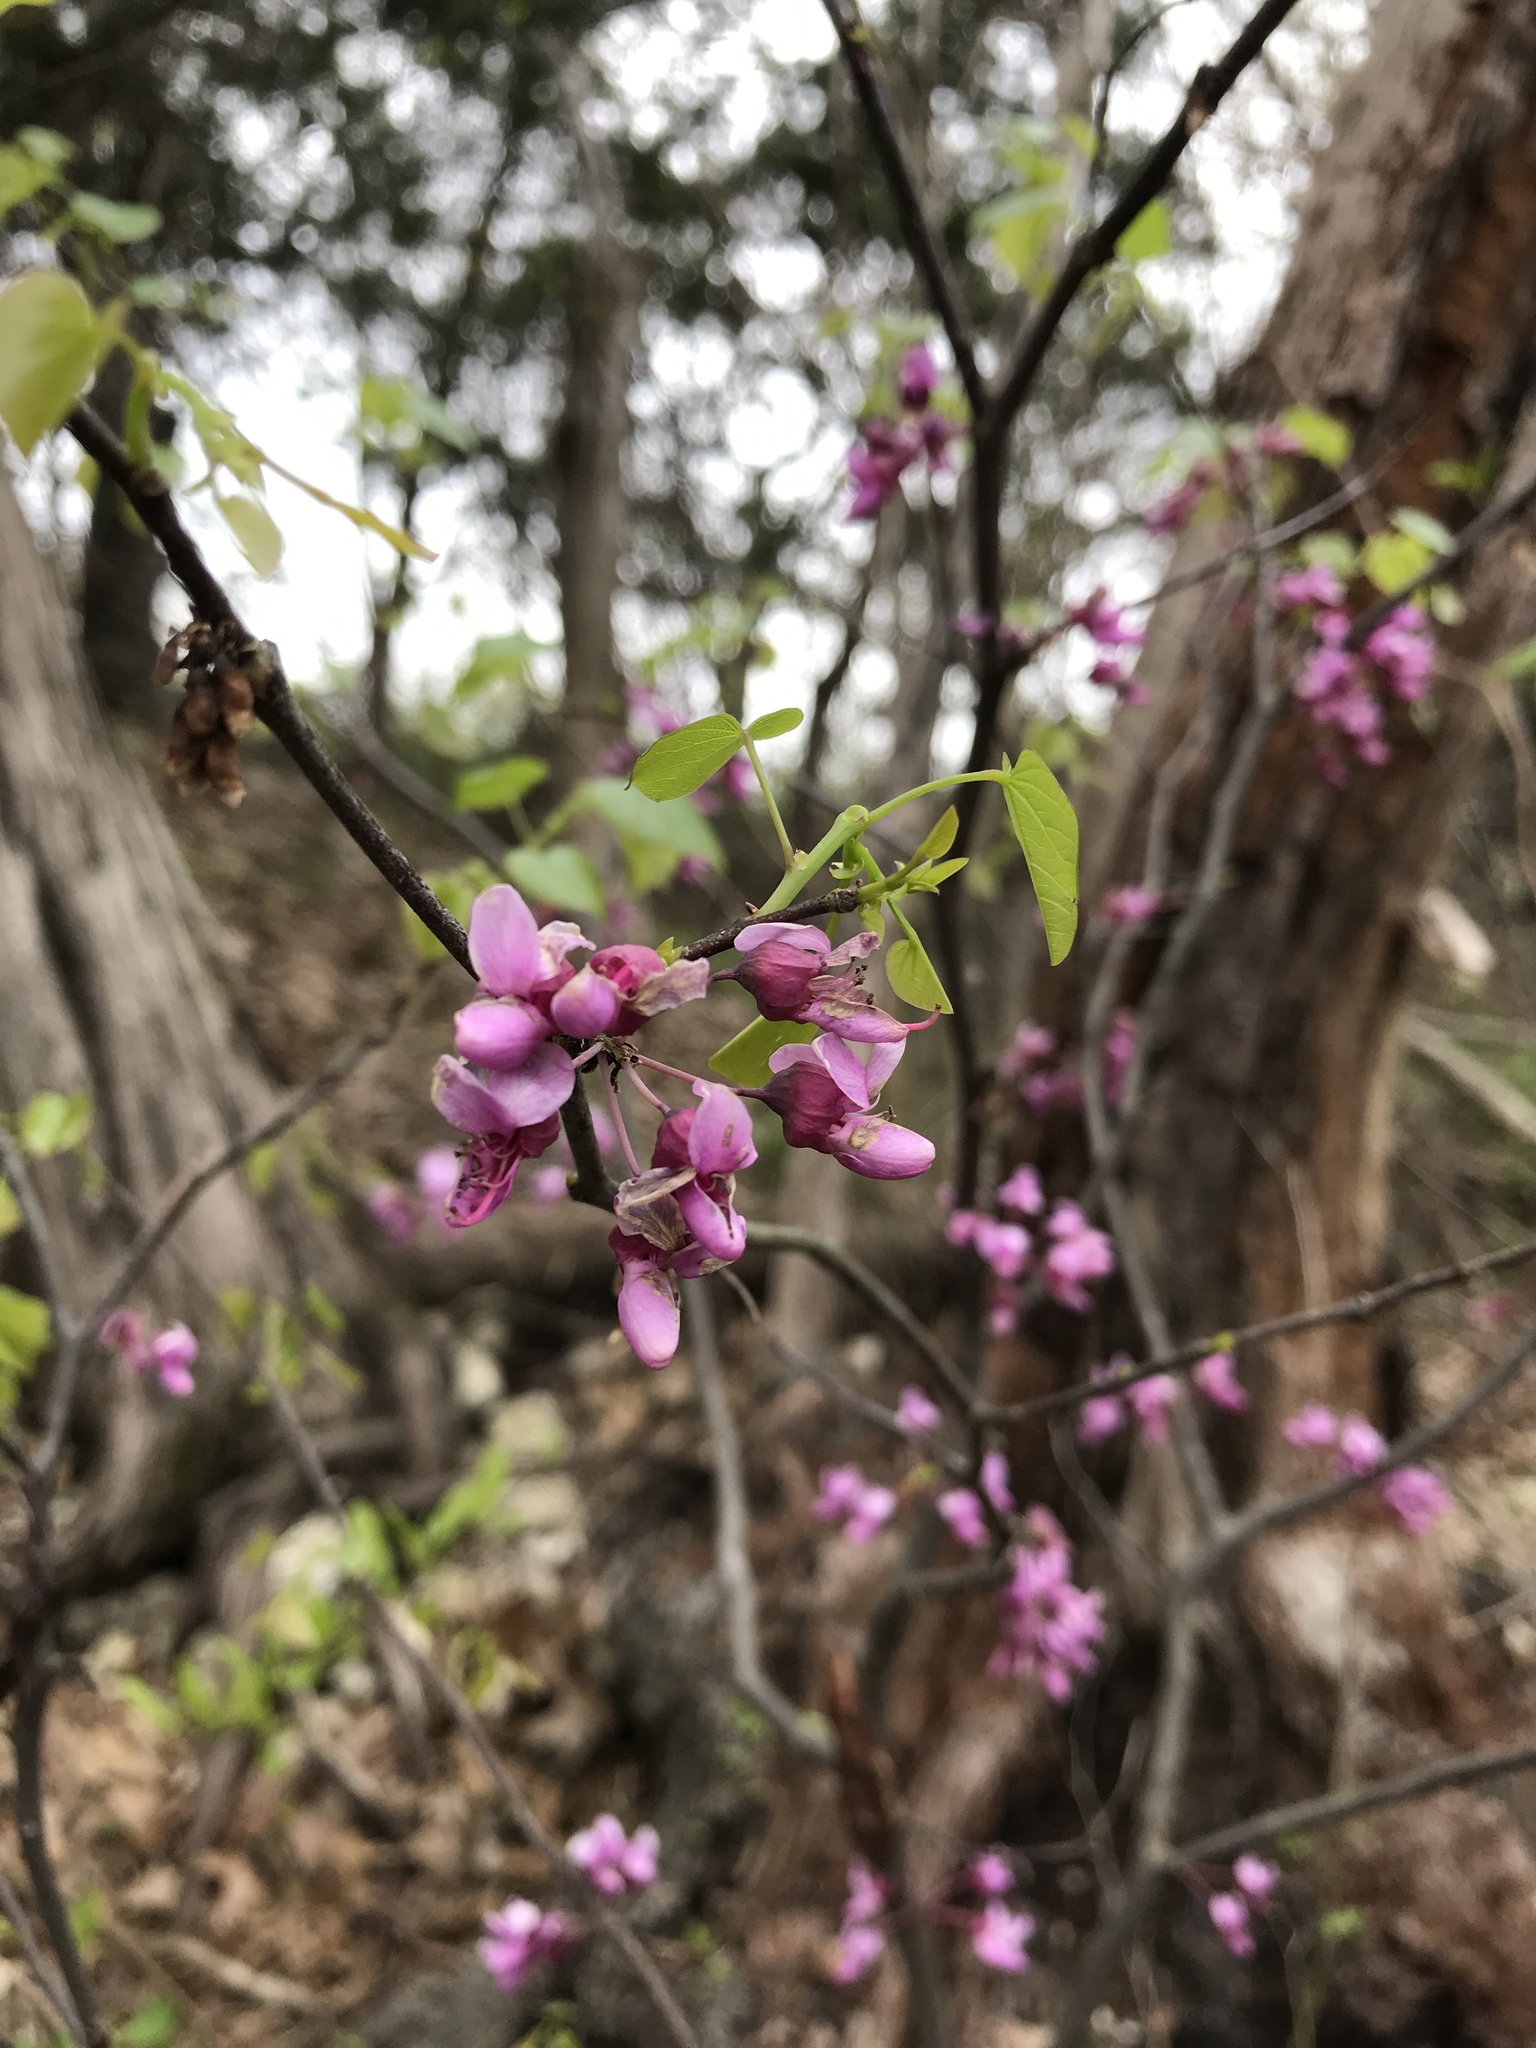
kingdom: Plantae
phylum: Tracheophyta
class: Magnoliopsida
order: Fabales
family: Fabaceae
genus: Cercis
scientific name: Cercis canadensis
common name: Eastern redbud
